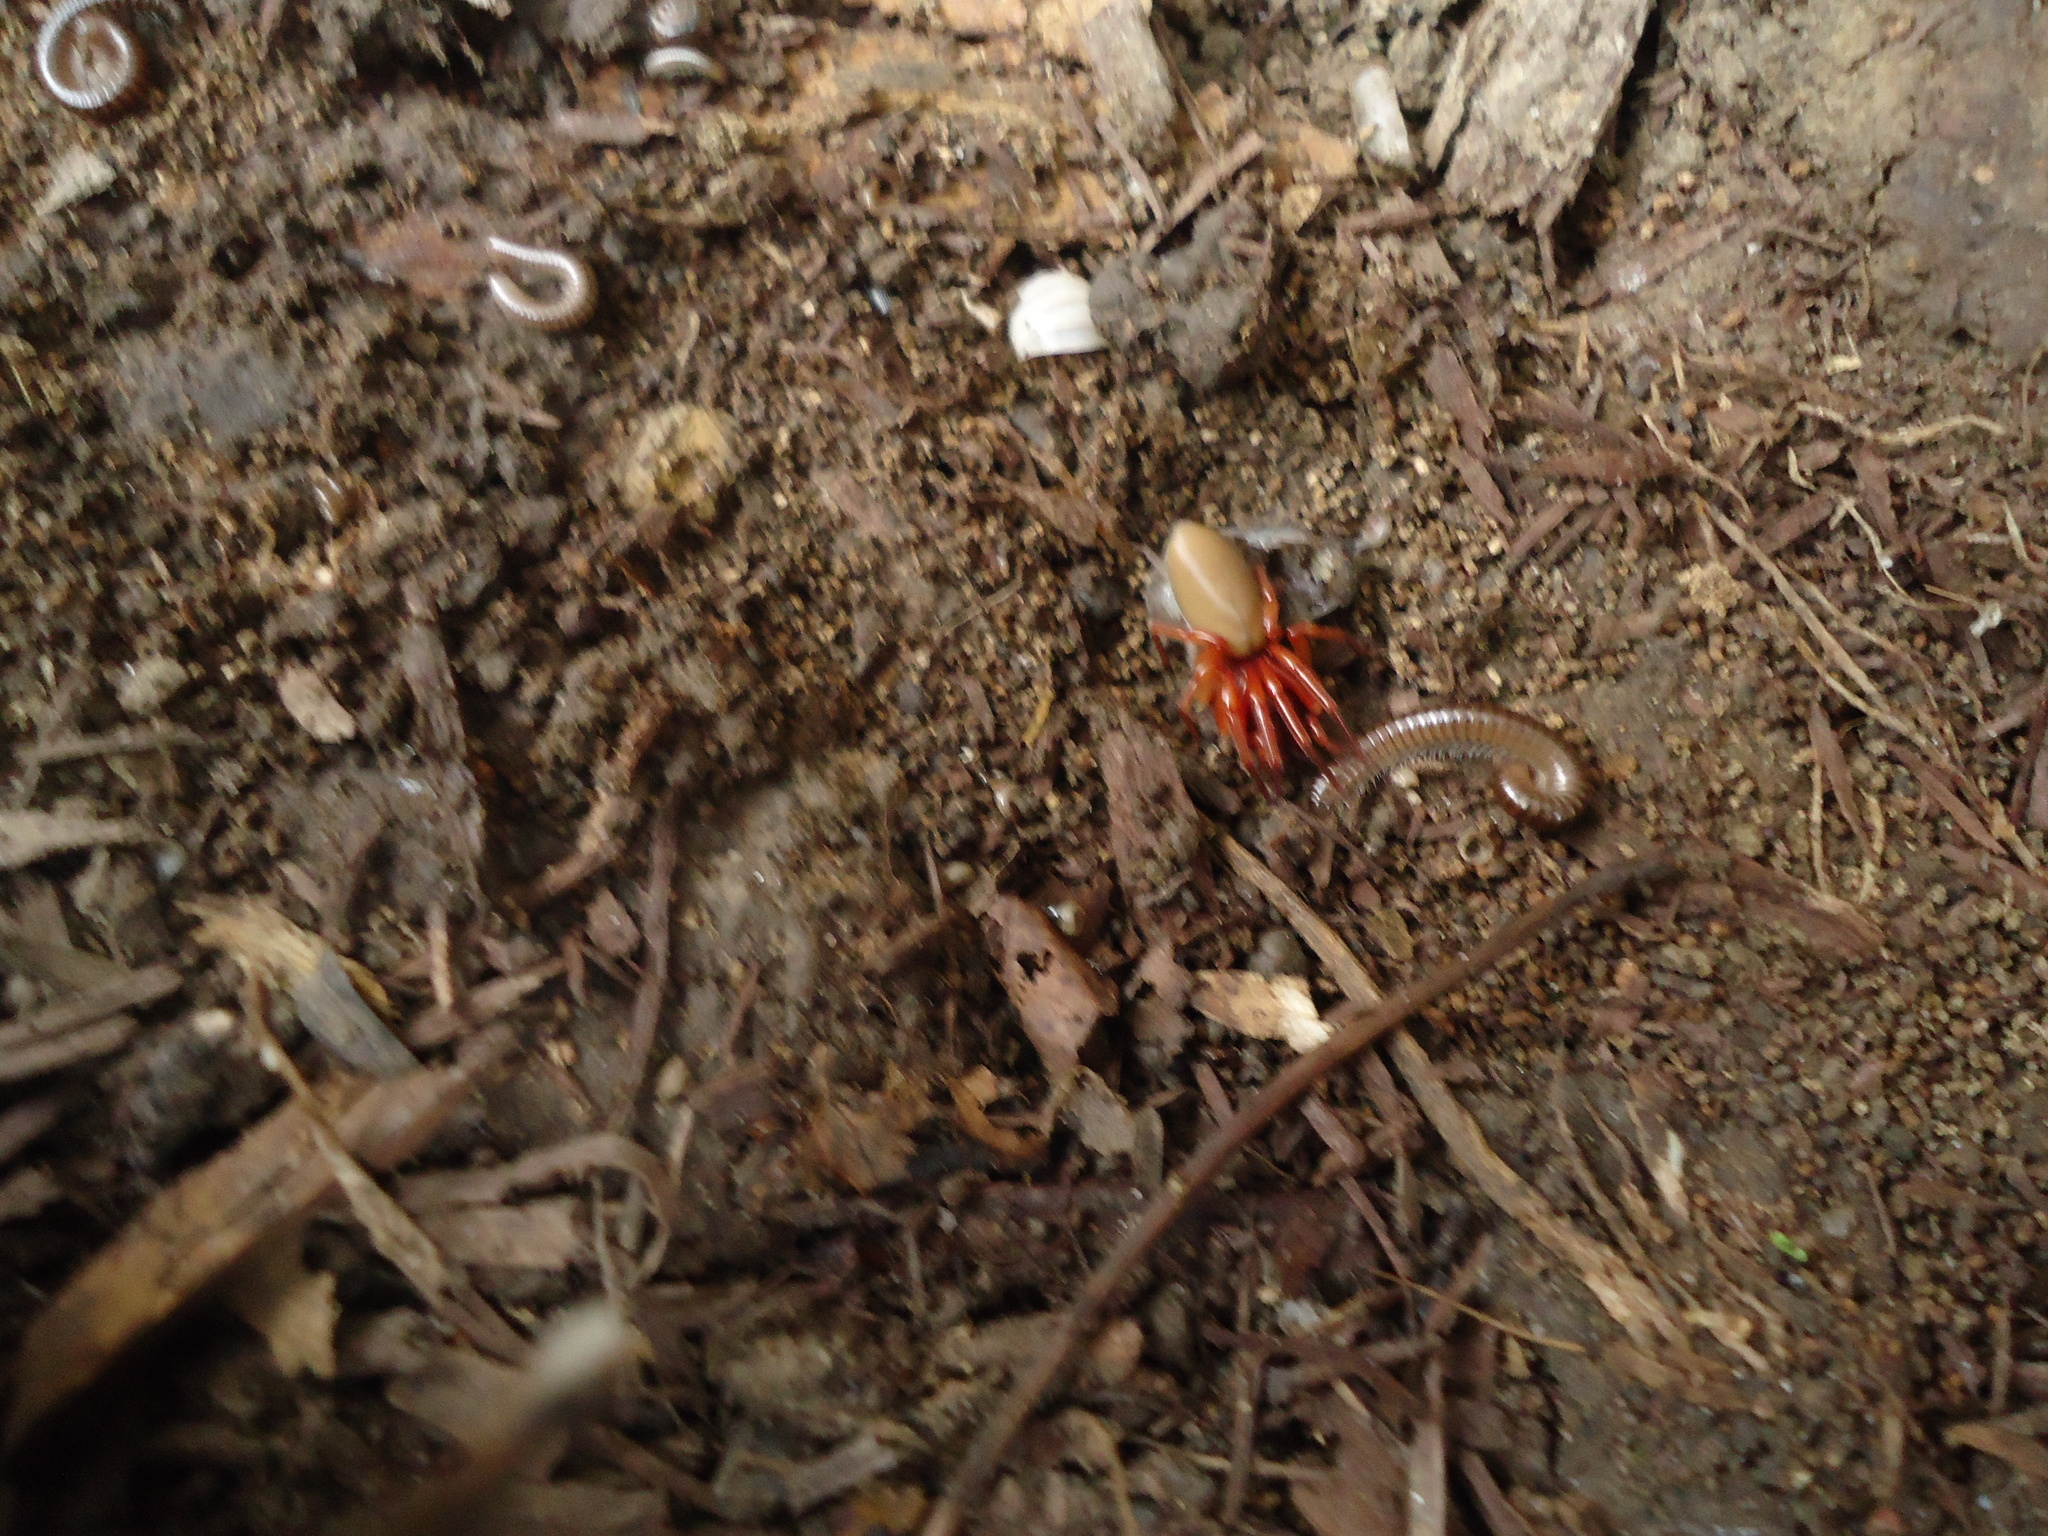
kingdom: Animalia
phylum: Arthropoda
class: Arachnida
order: Araneae
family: Dysderidae
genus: Dysdera
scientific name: Dysdera crocata
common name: Woodlouse spider
